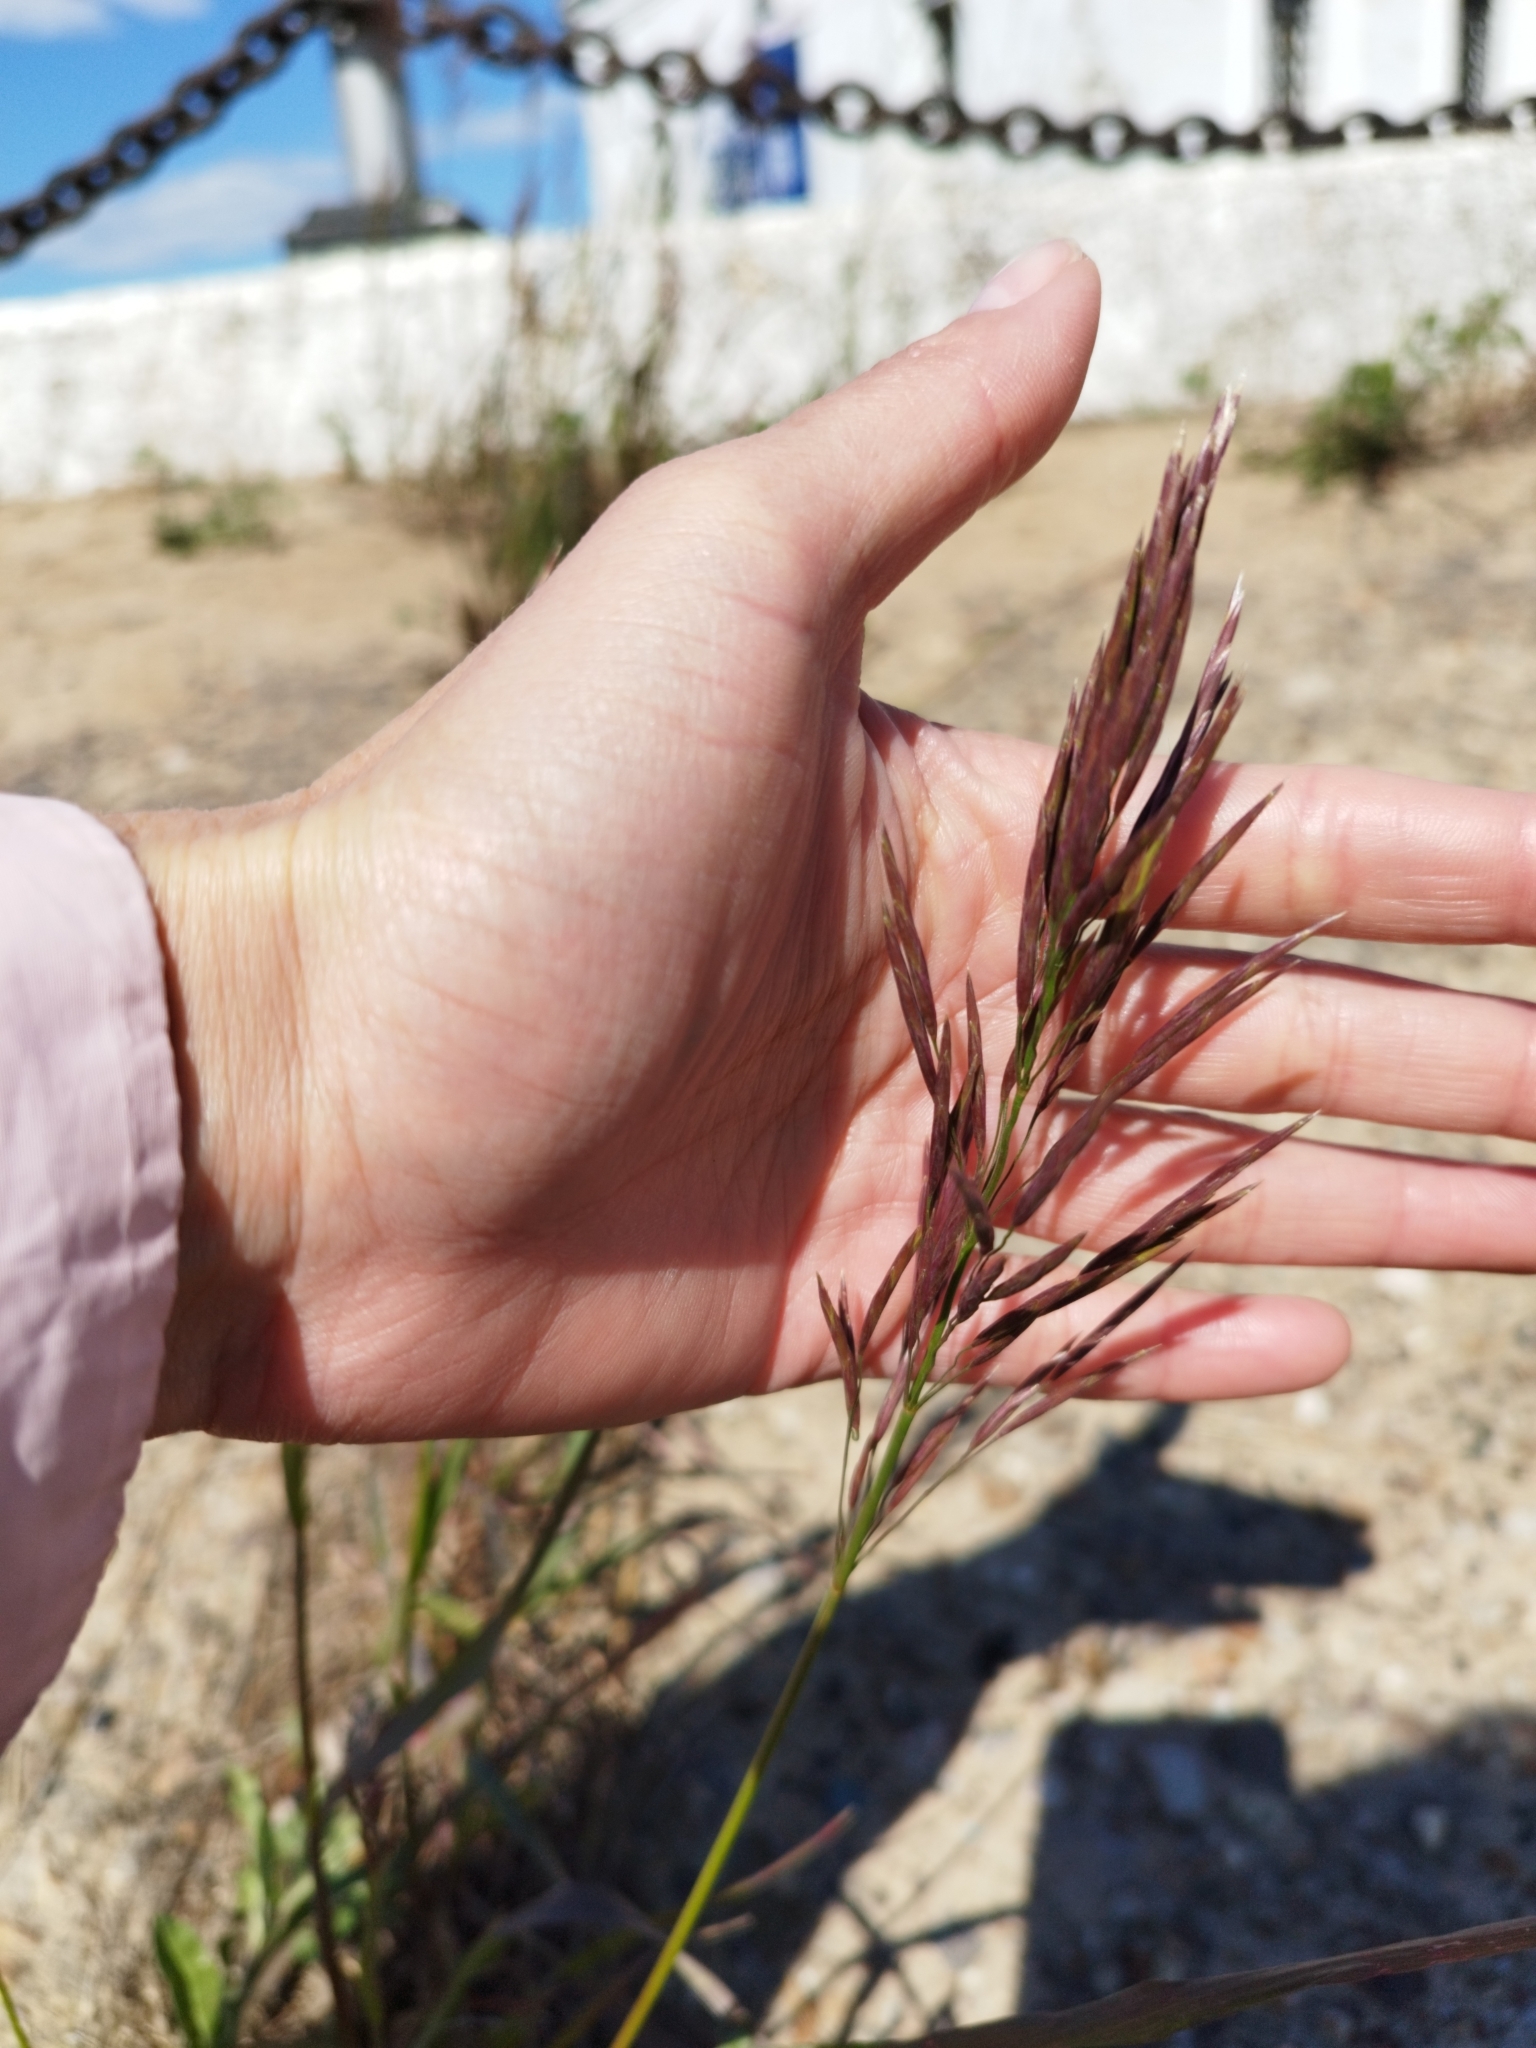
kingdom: Plantae
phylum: Tracheophyta
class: Liliopsida
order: Poales
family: Poaceae
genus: Bromus
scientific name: Bromus inermis
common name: Smooth brome
